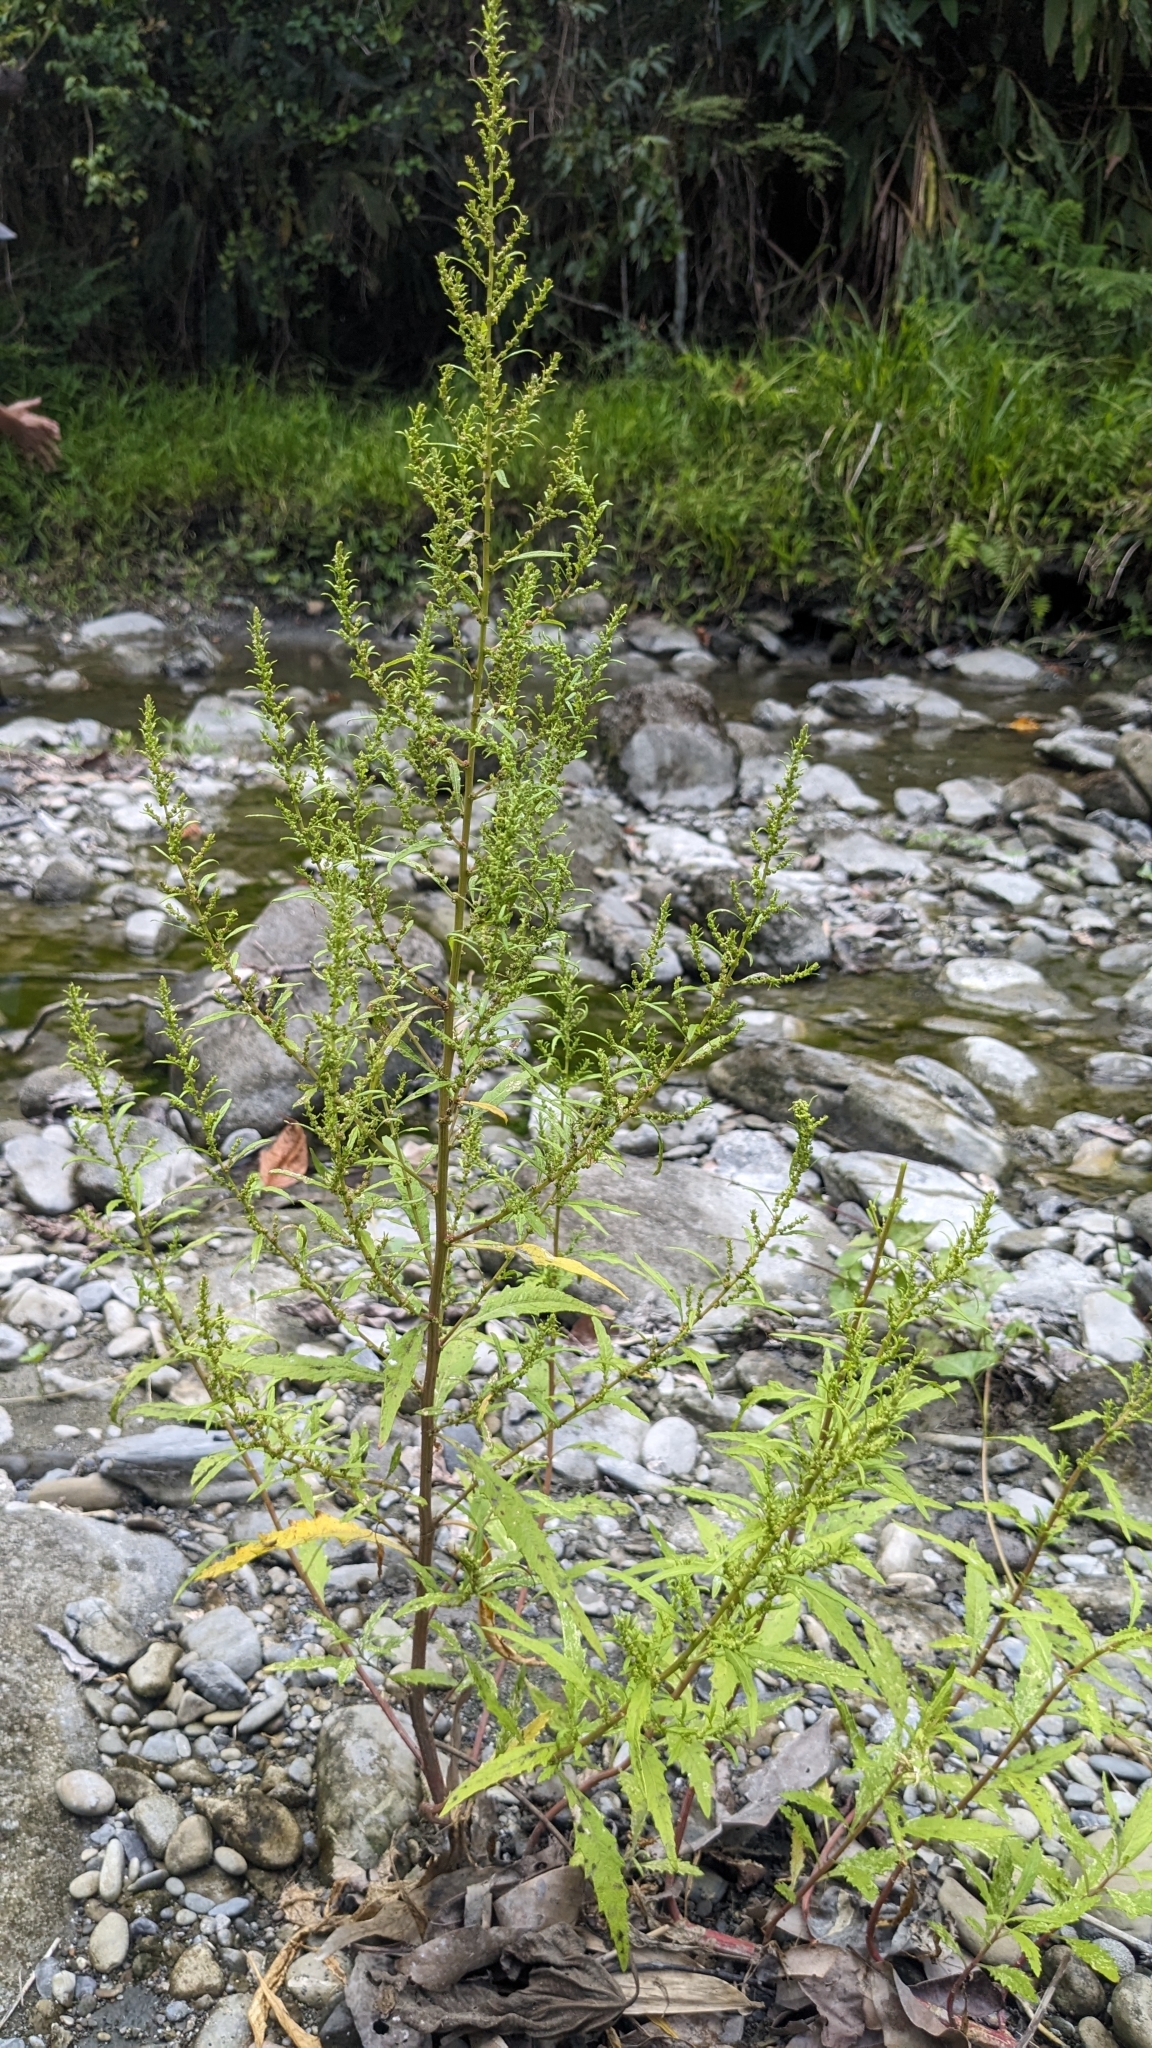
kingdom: Plantae
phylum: Tracheophyta
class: Magnoliopsida
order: Caryophyllales
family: Amaranthaceae
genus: Dysphania
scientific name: Dysphania ambrosioides
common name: Wormseed
